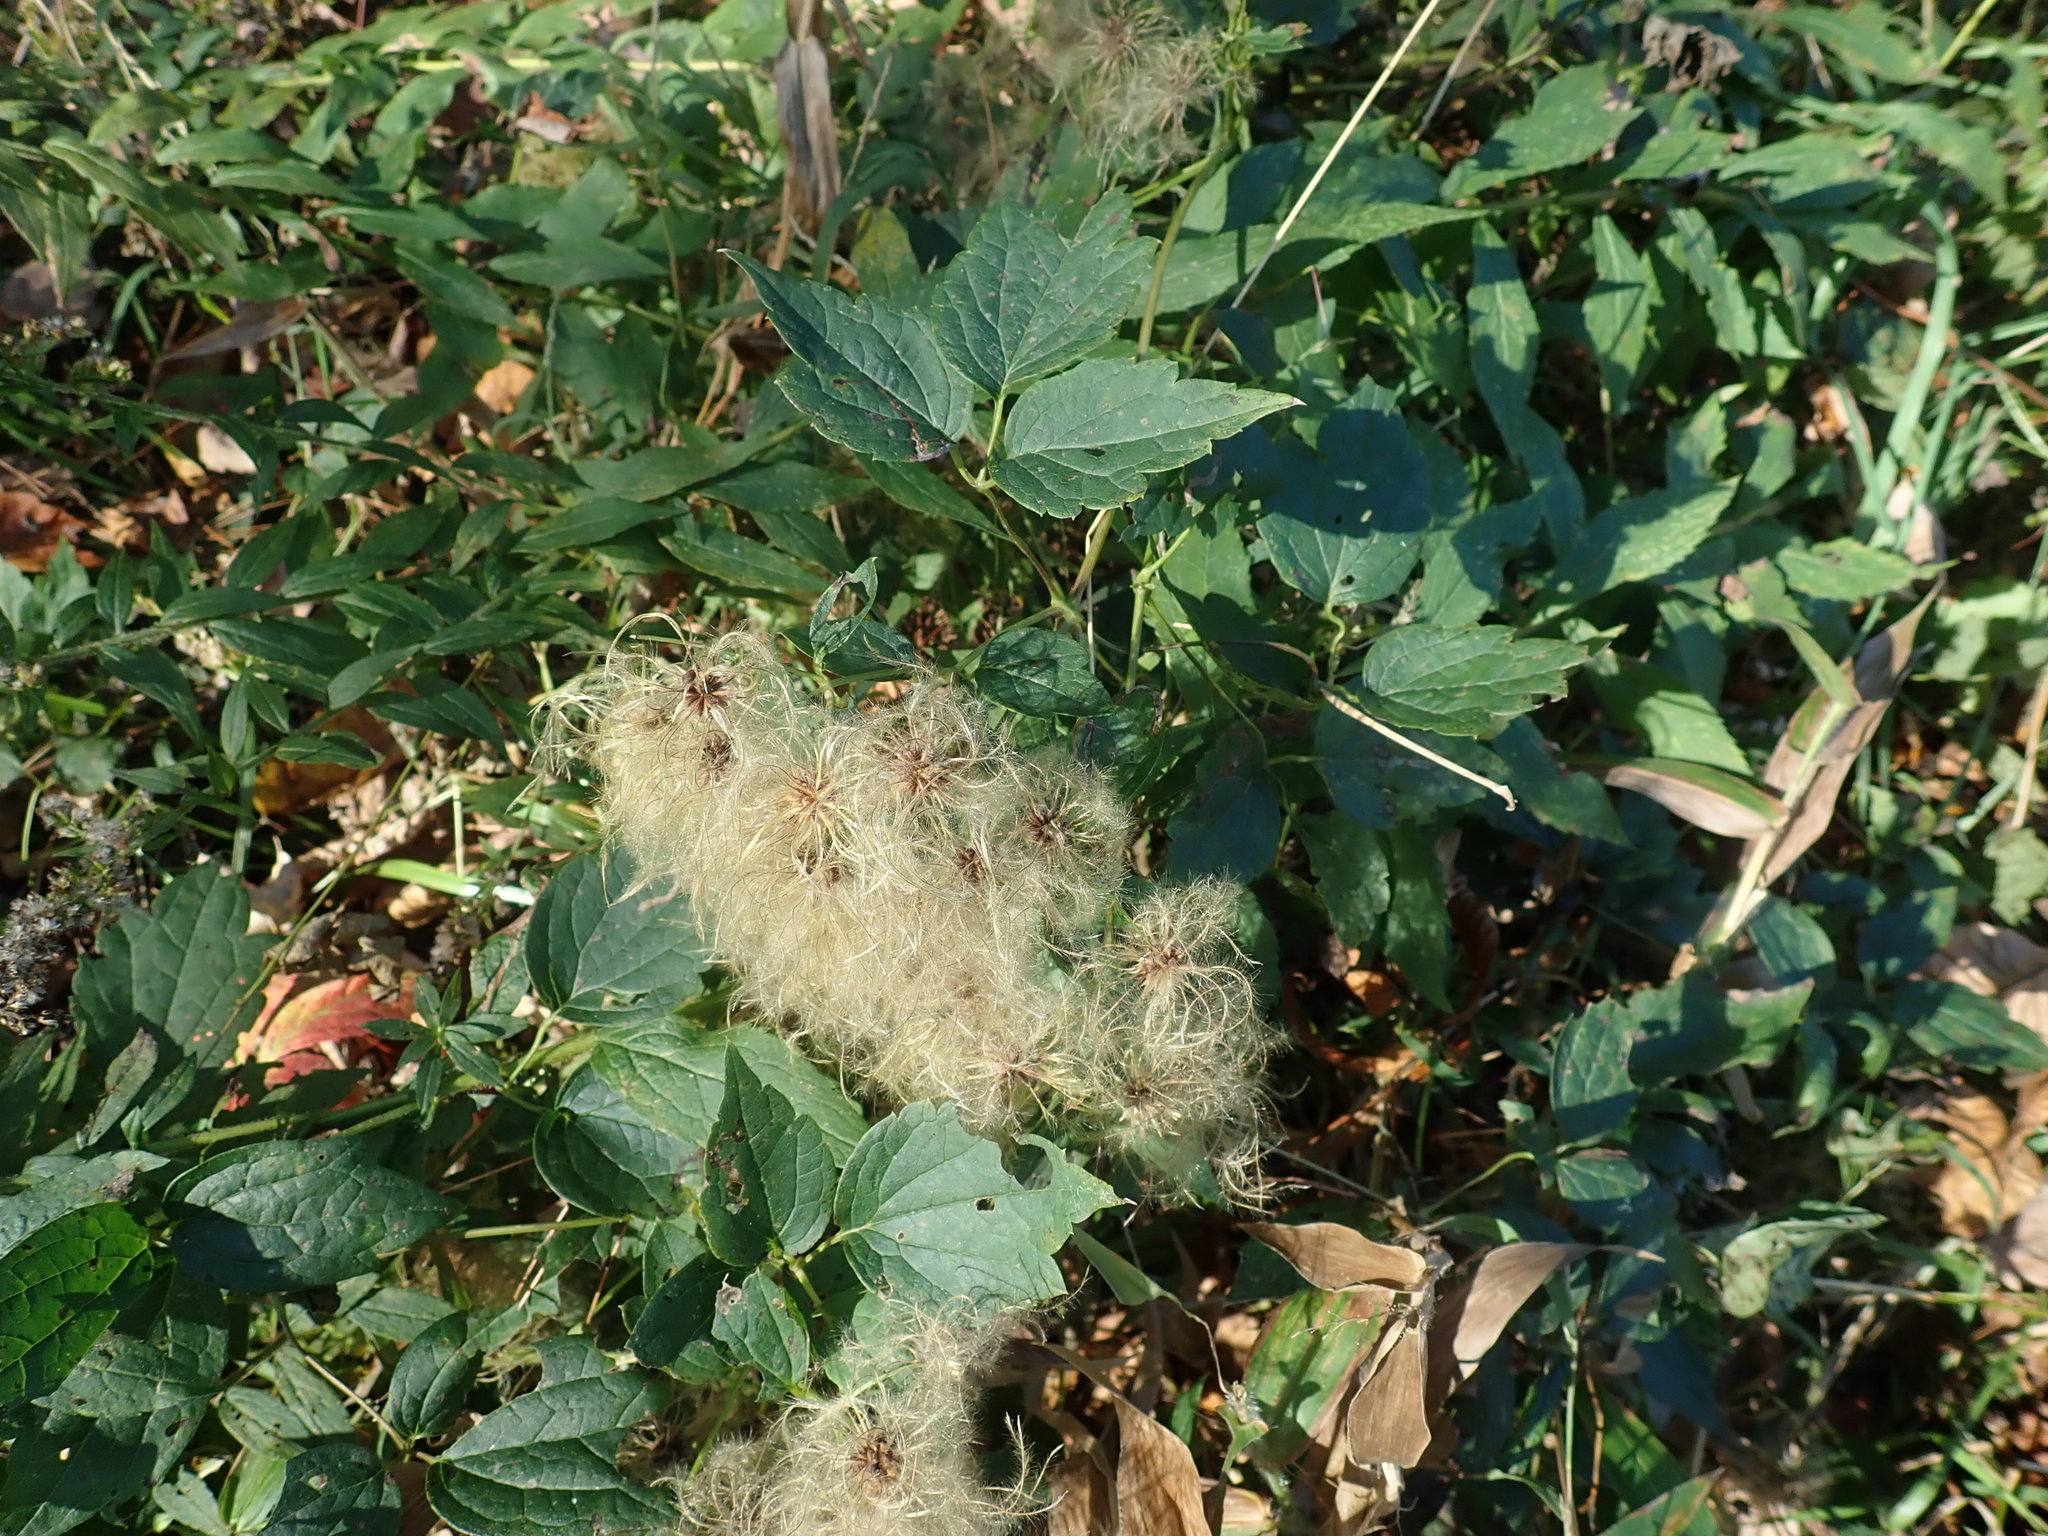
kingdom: Plantae
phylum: Tracheophyta
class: Magnoliopsida
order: Ranunculales
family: Ranunculaceae
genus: Clematis
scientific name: Clematis virginiana
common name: Virgin's-bower
